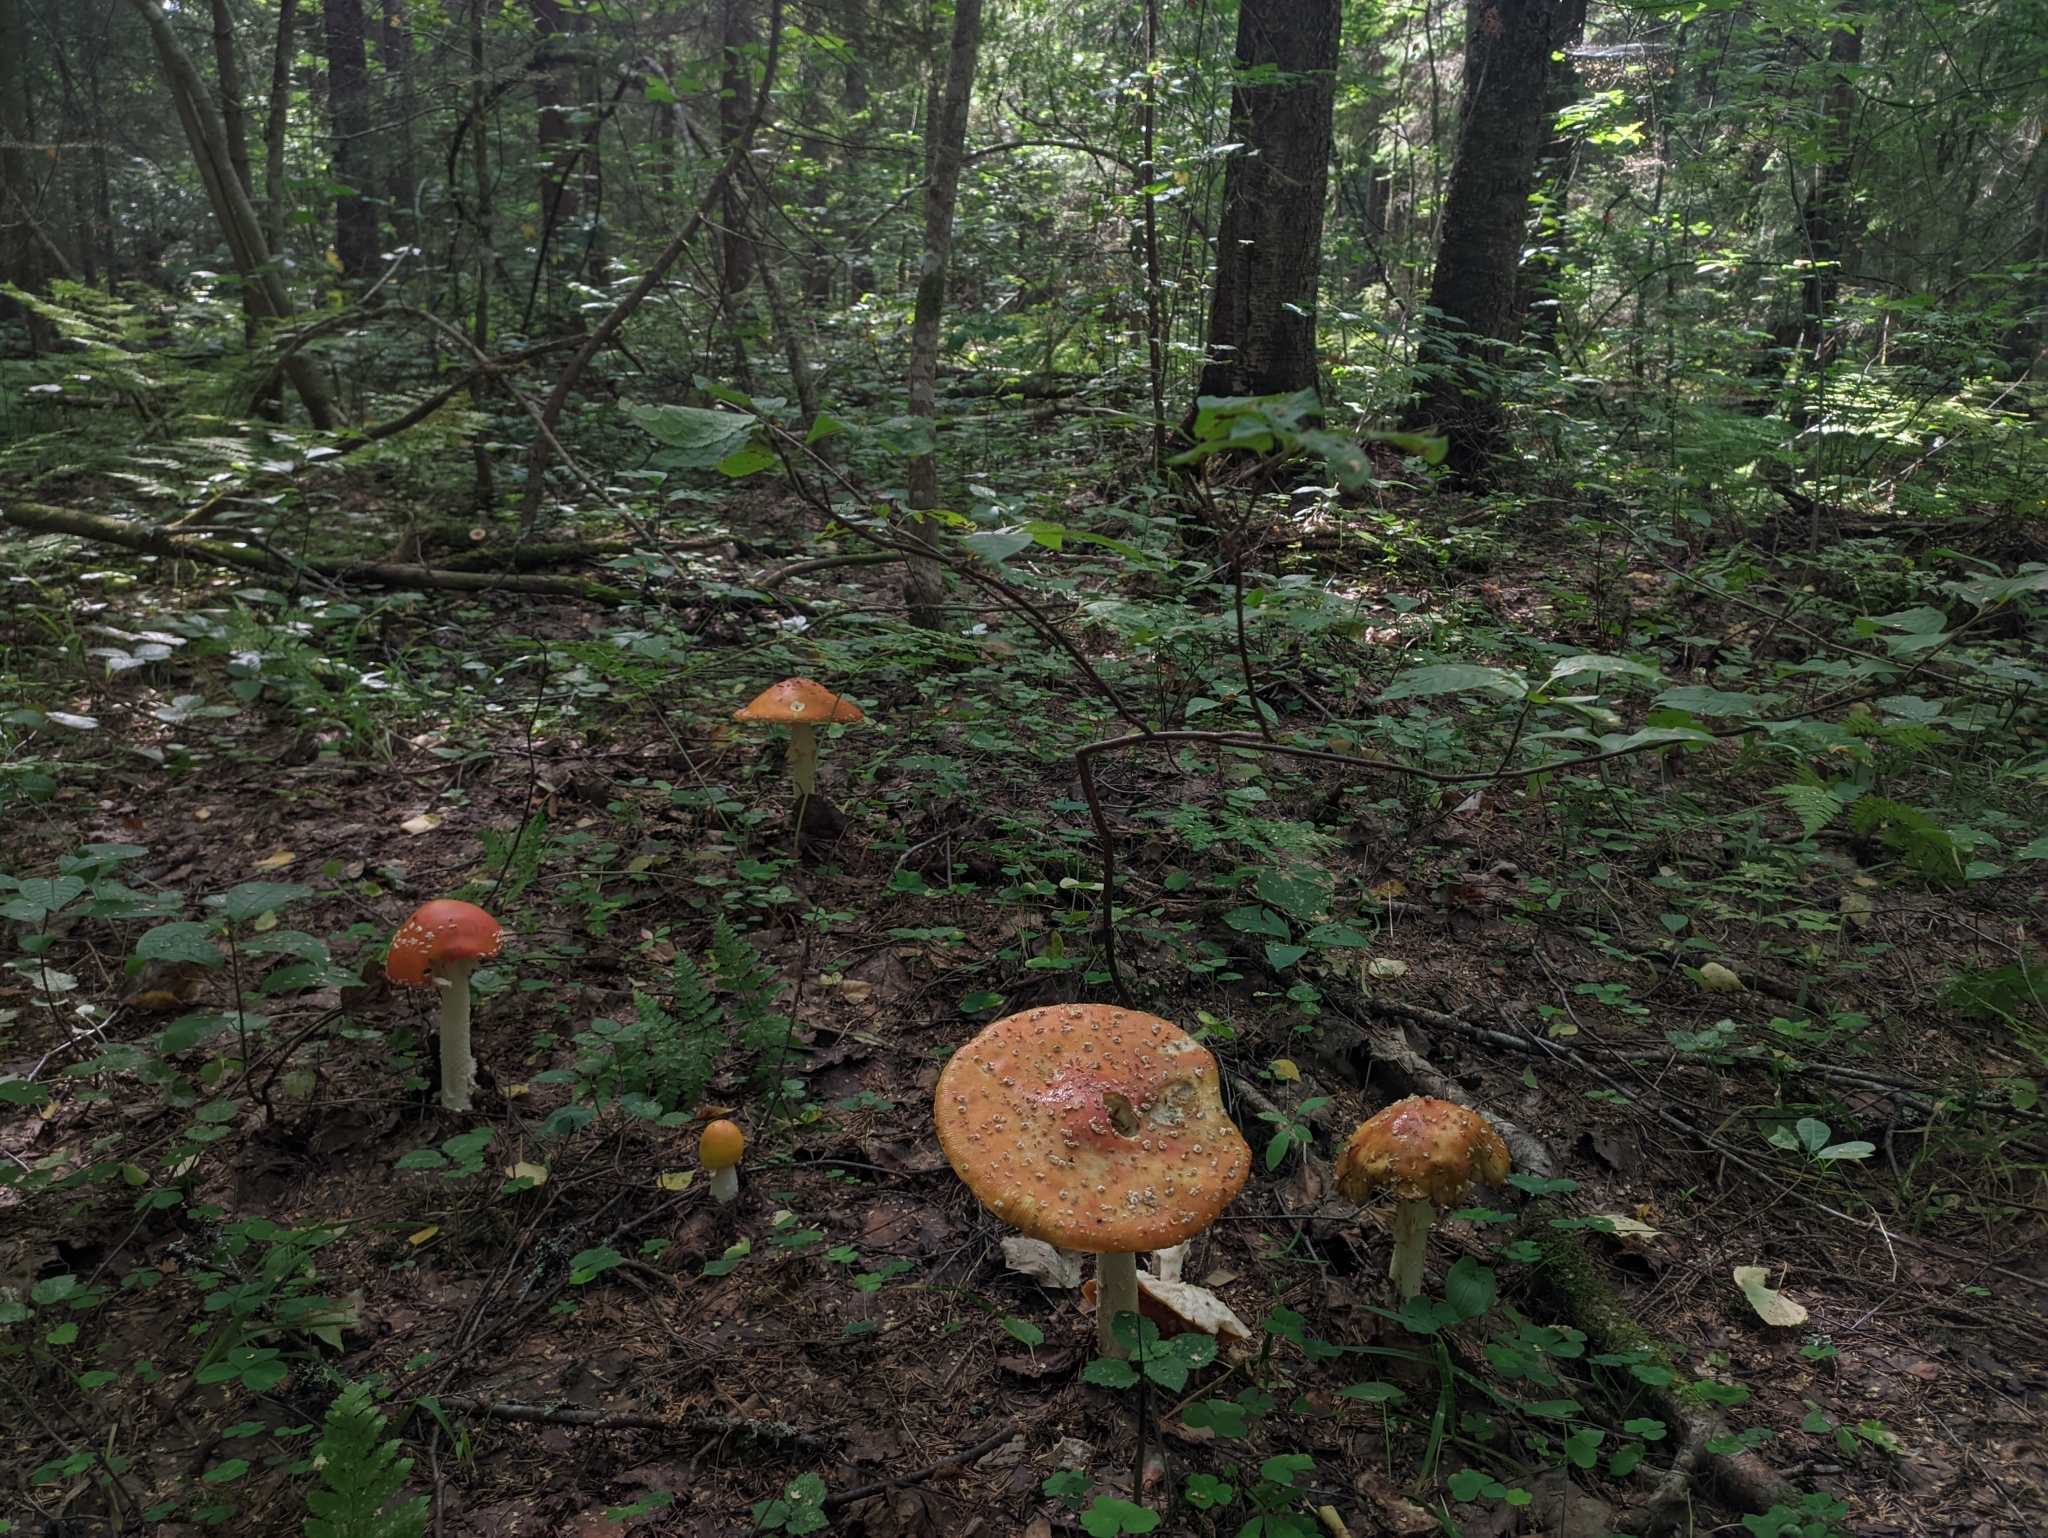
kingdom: Fungi
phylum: Basidiomycota
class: Agaricomycetes
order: Agaricales
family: Amanitaceae
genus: Amanita
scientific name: Amanita muscaria
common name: Fly agaric
